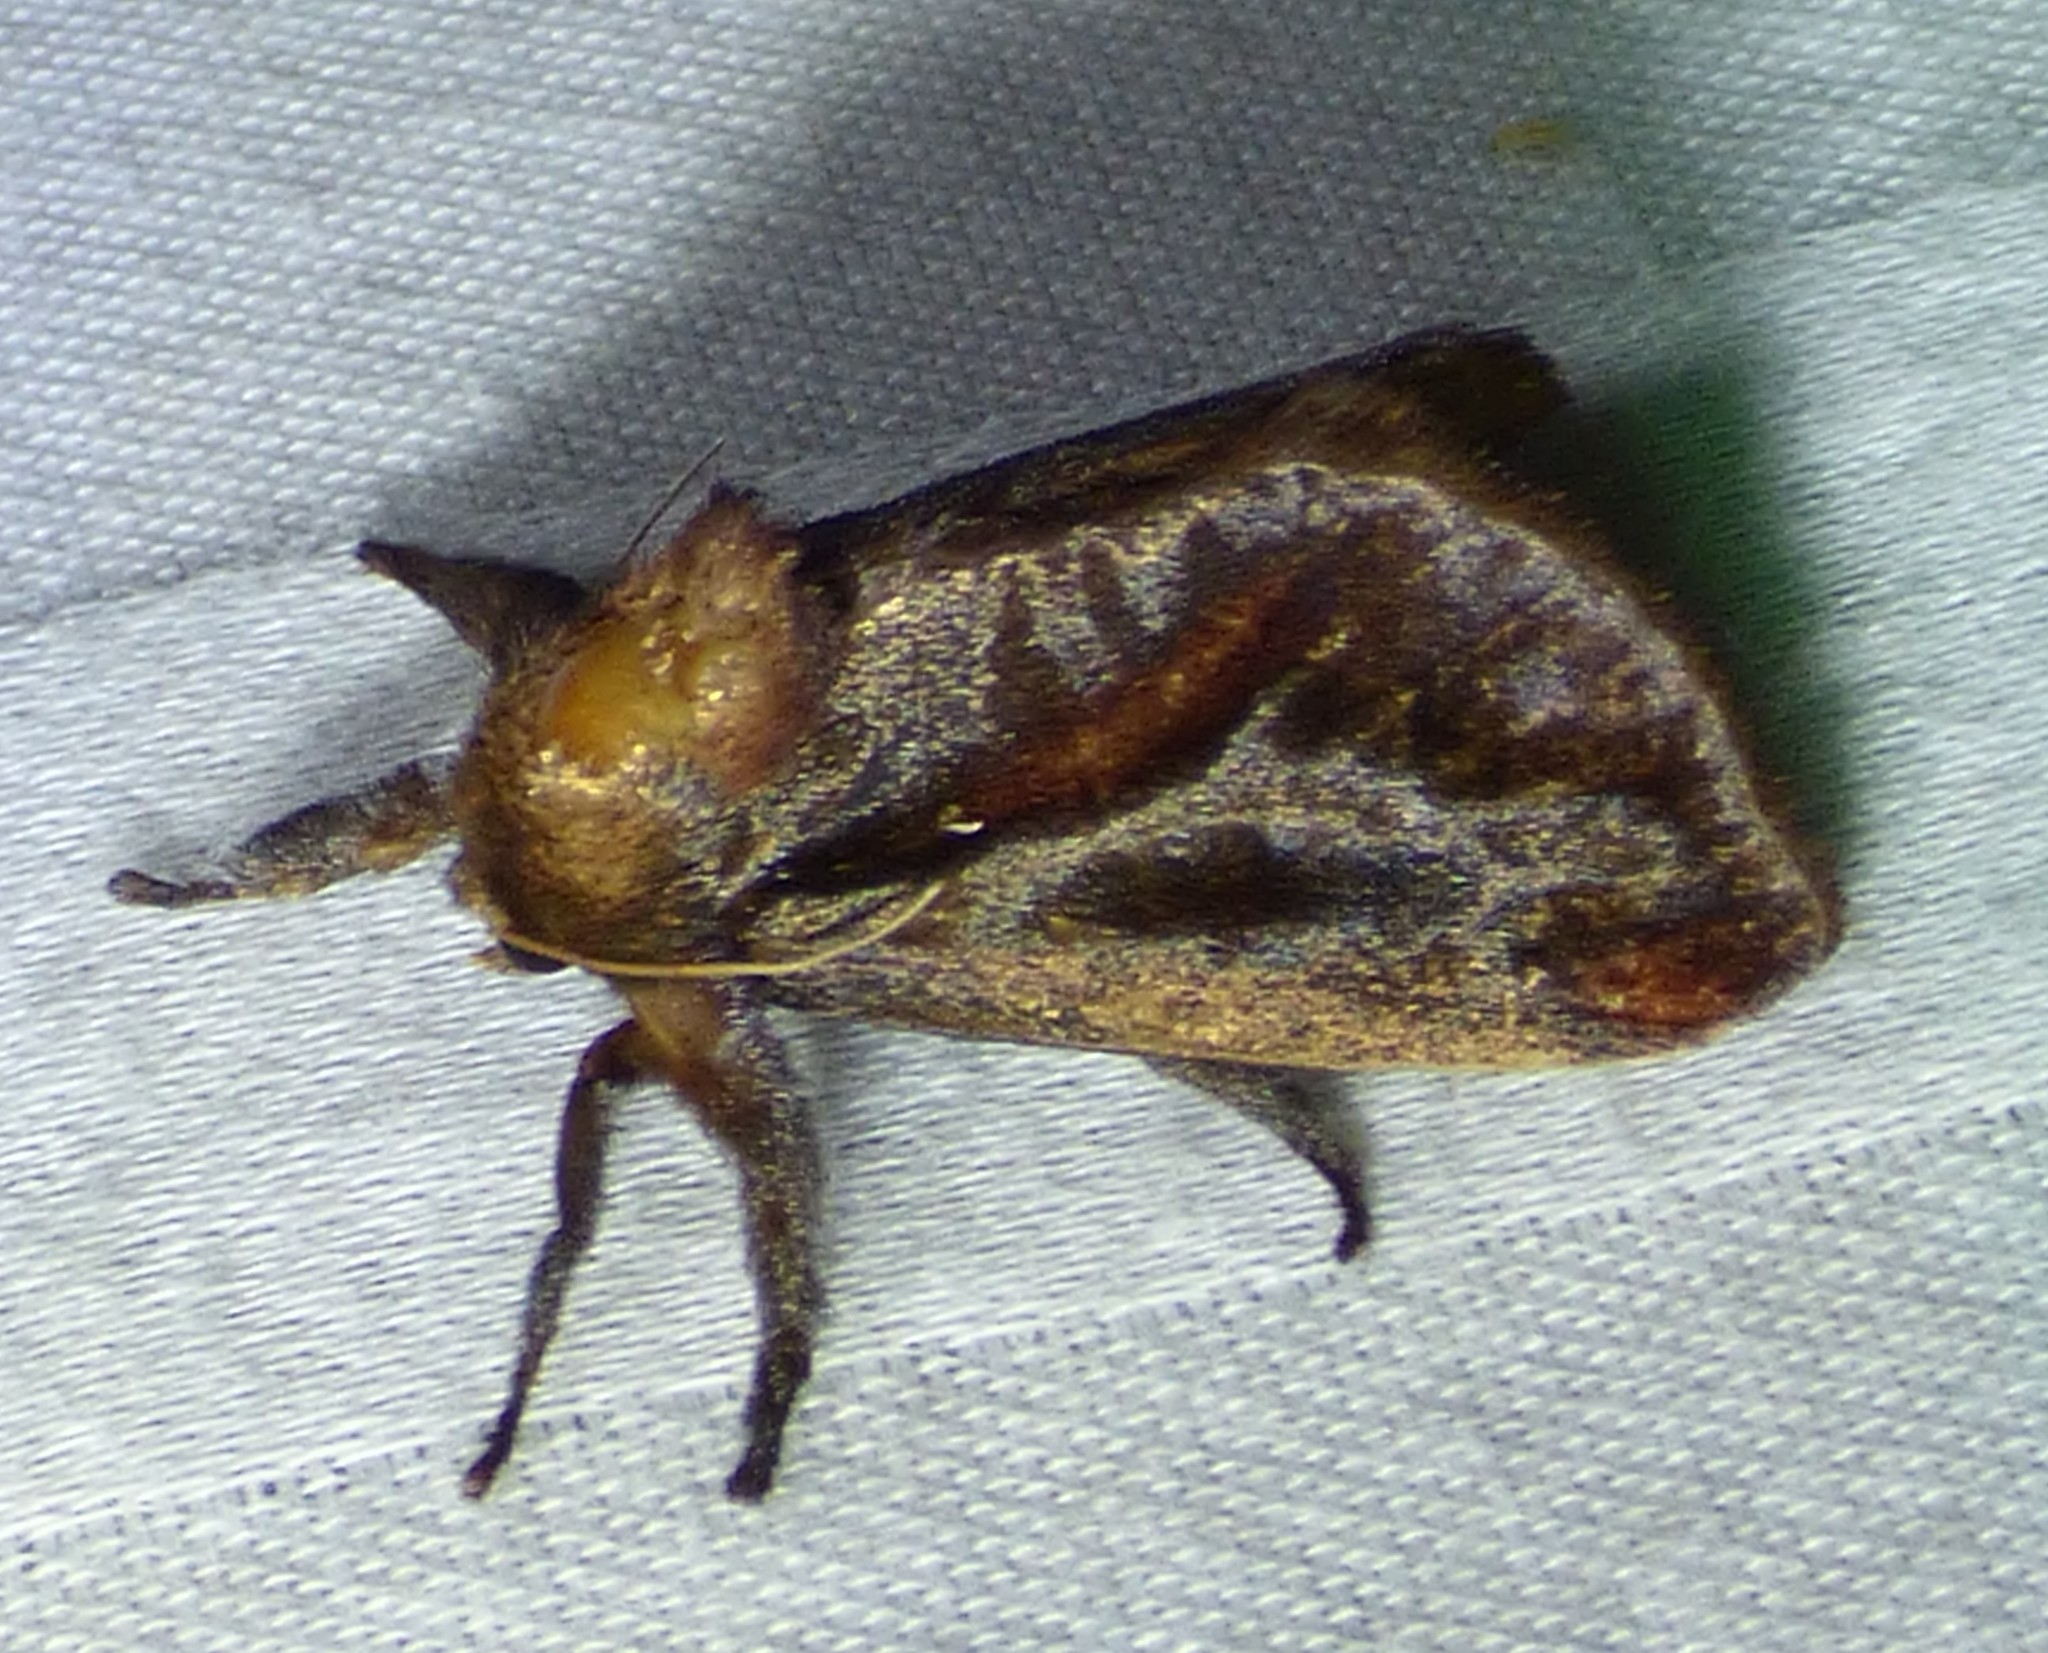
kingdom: Animalia
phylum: Arthropoda
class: Insecta
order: Lepidoptera
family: Limacodidae
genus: Acharia
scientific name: Acharia stimulea
